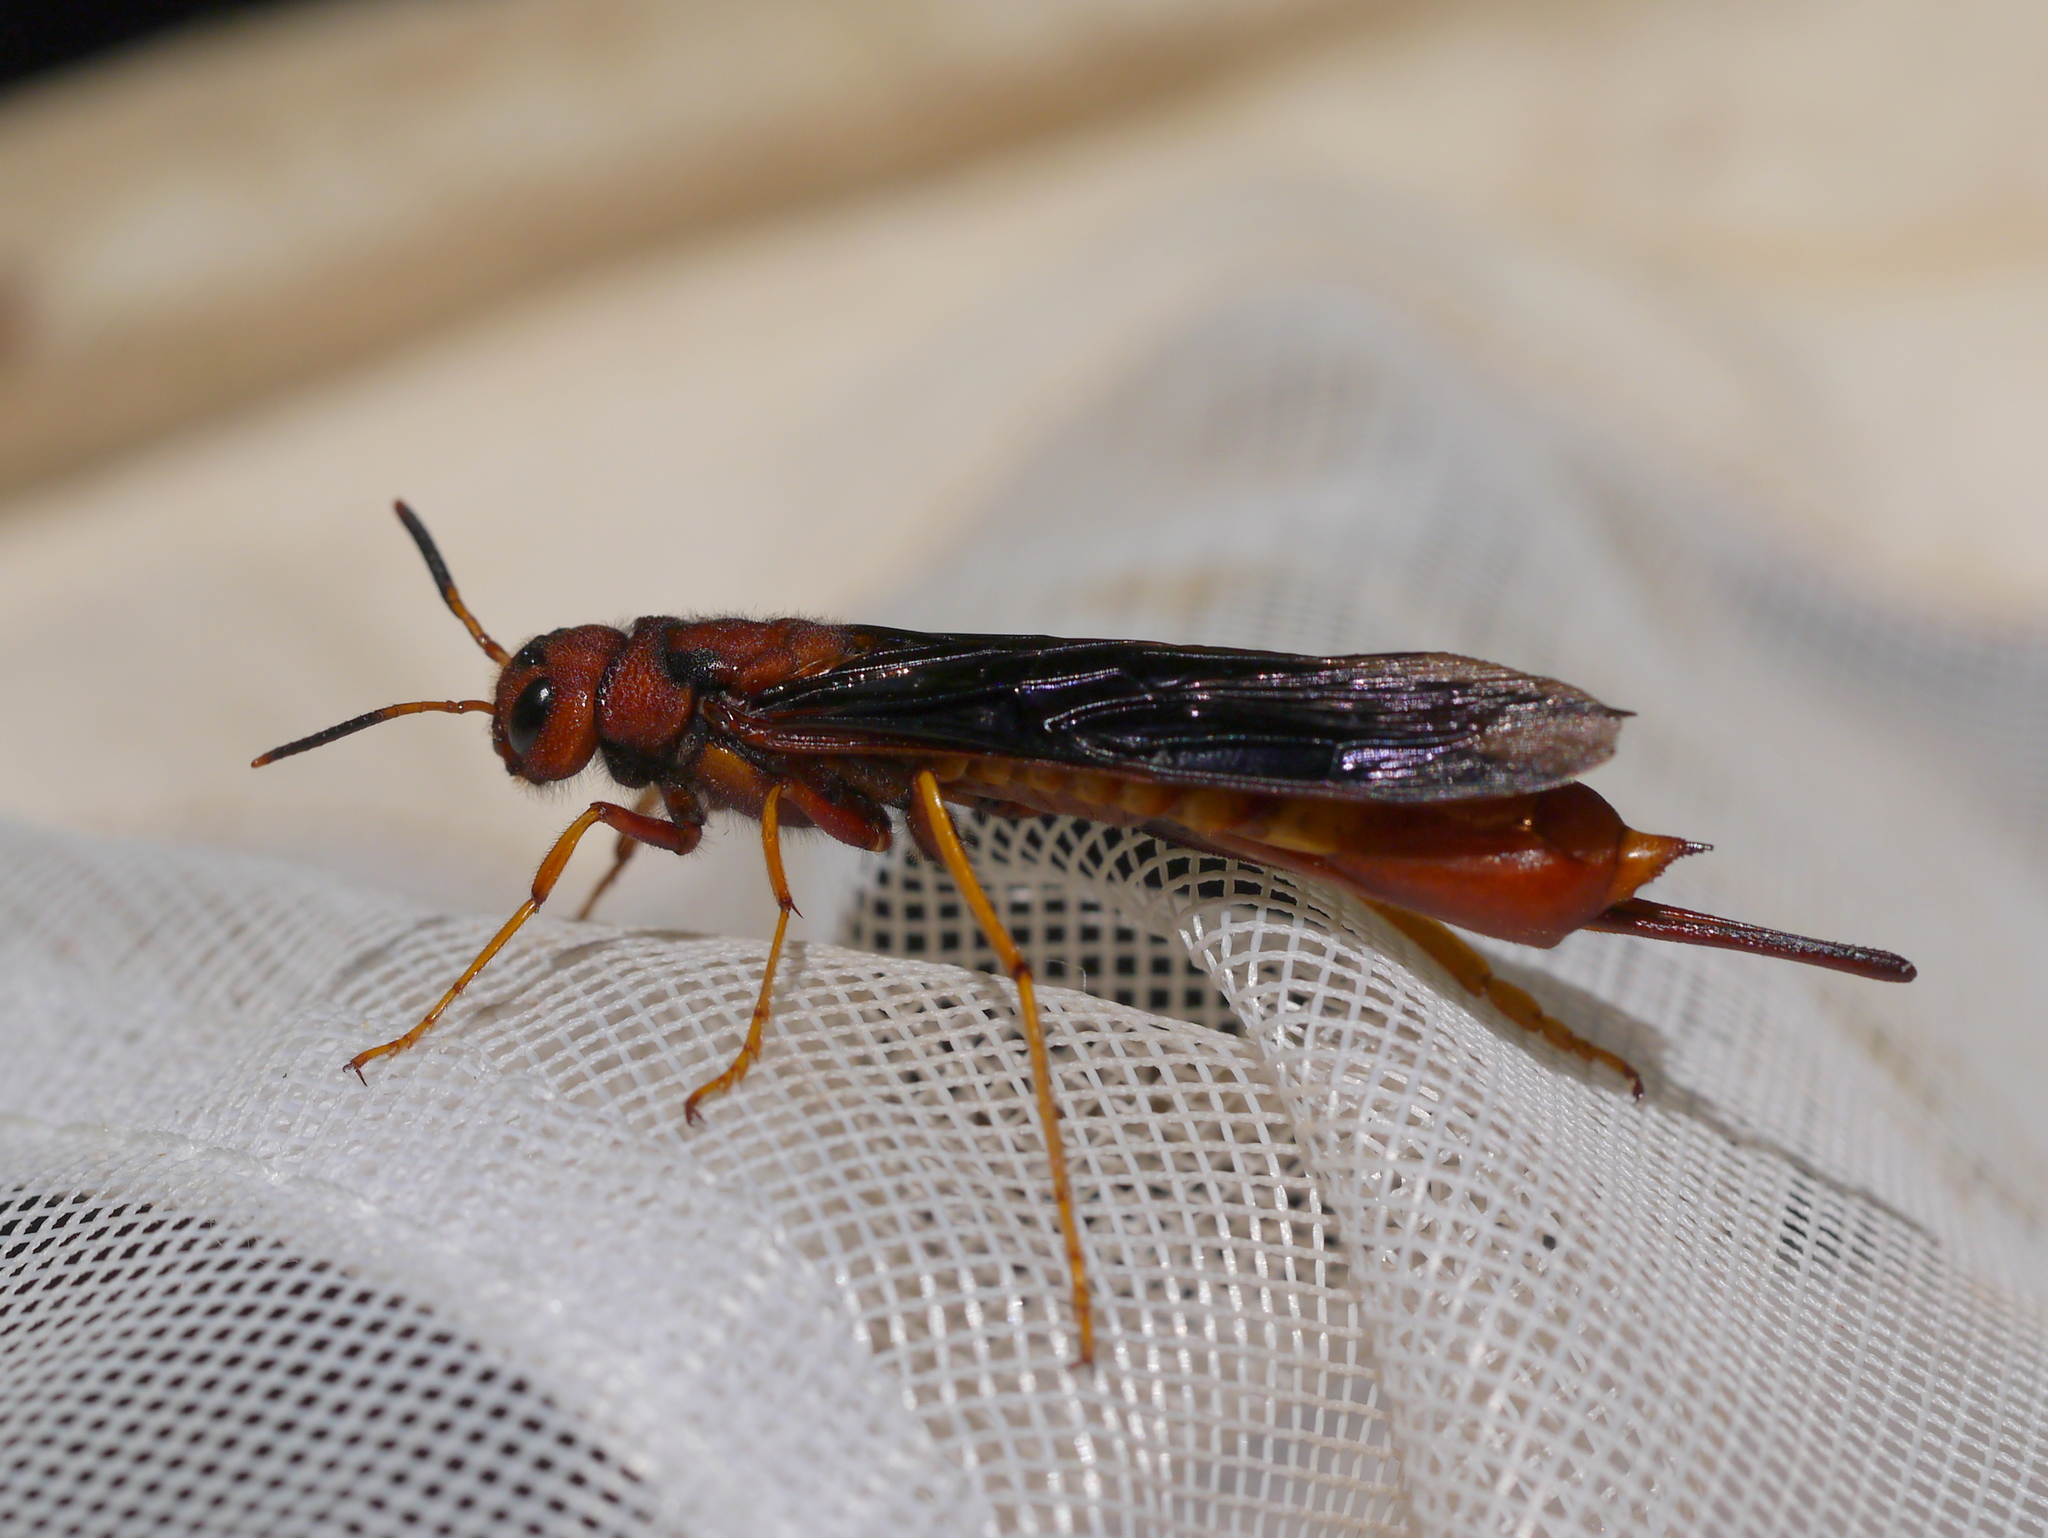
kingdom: Animalia
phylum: Arthropoda
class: Insecta
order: Hymenoptera
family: Siricidae
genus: Tremex
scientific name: Tremex columba
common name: Wasp
